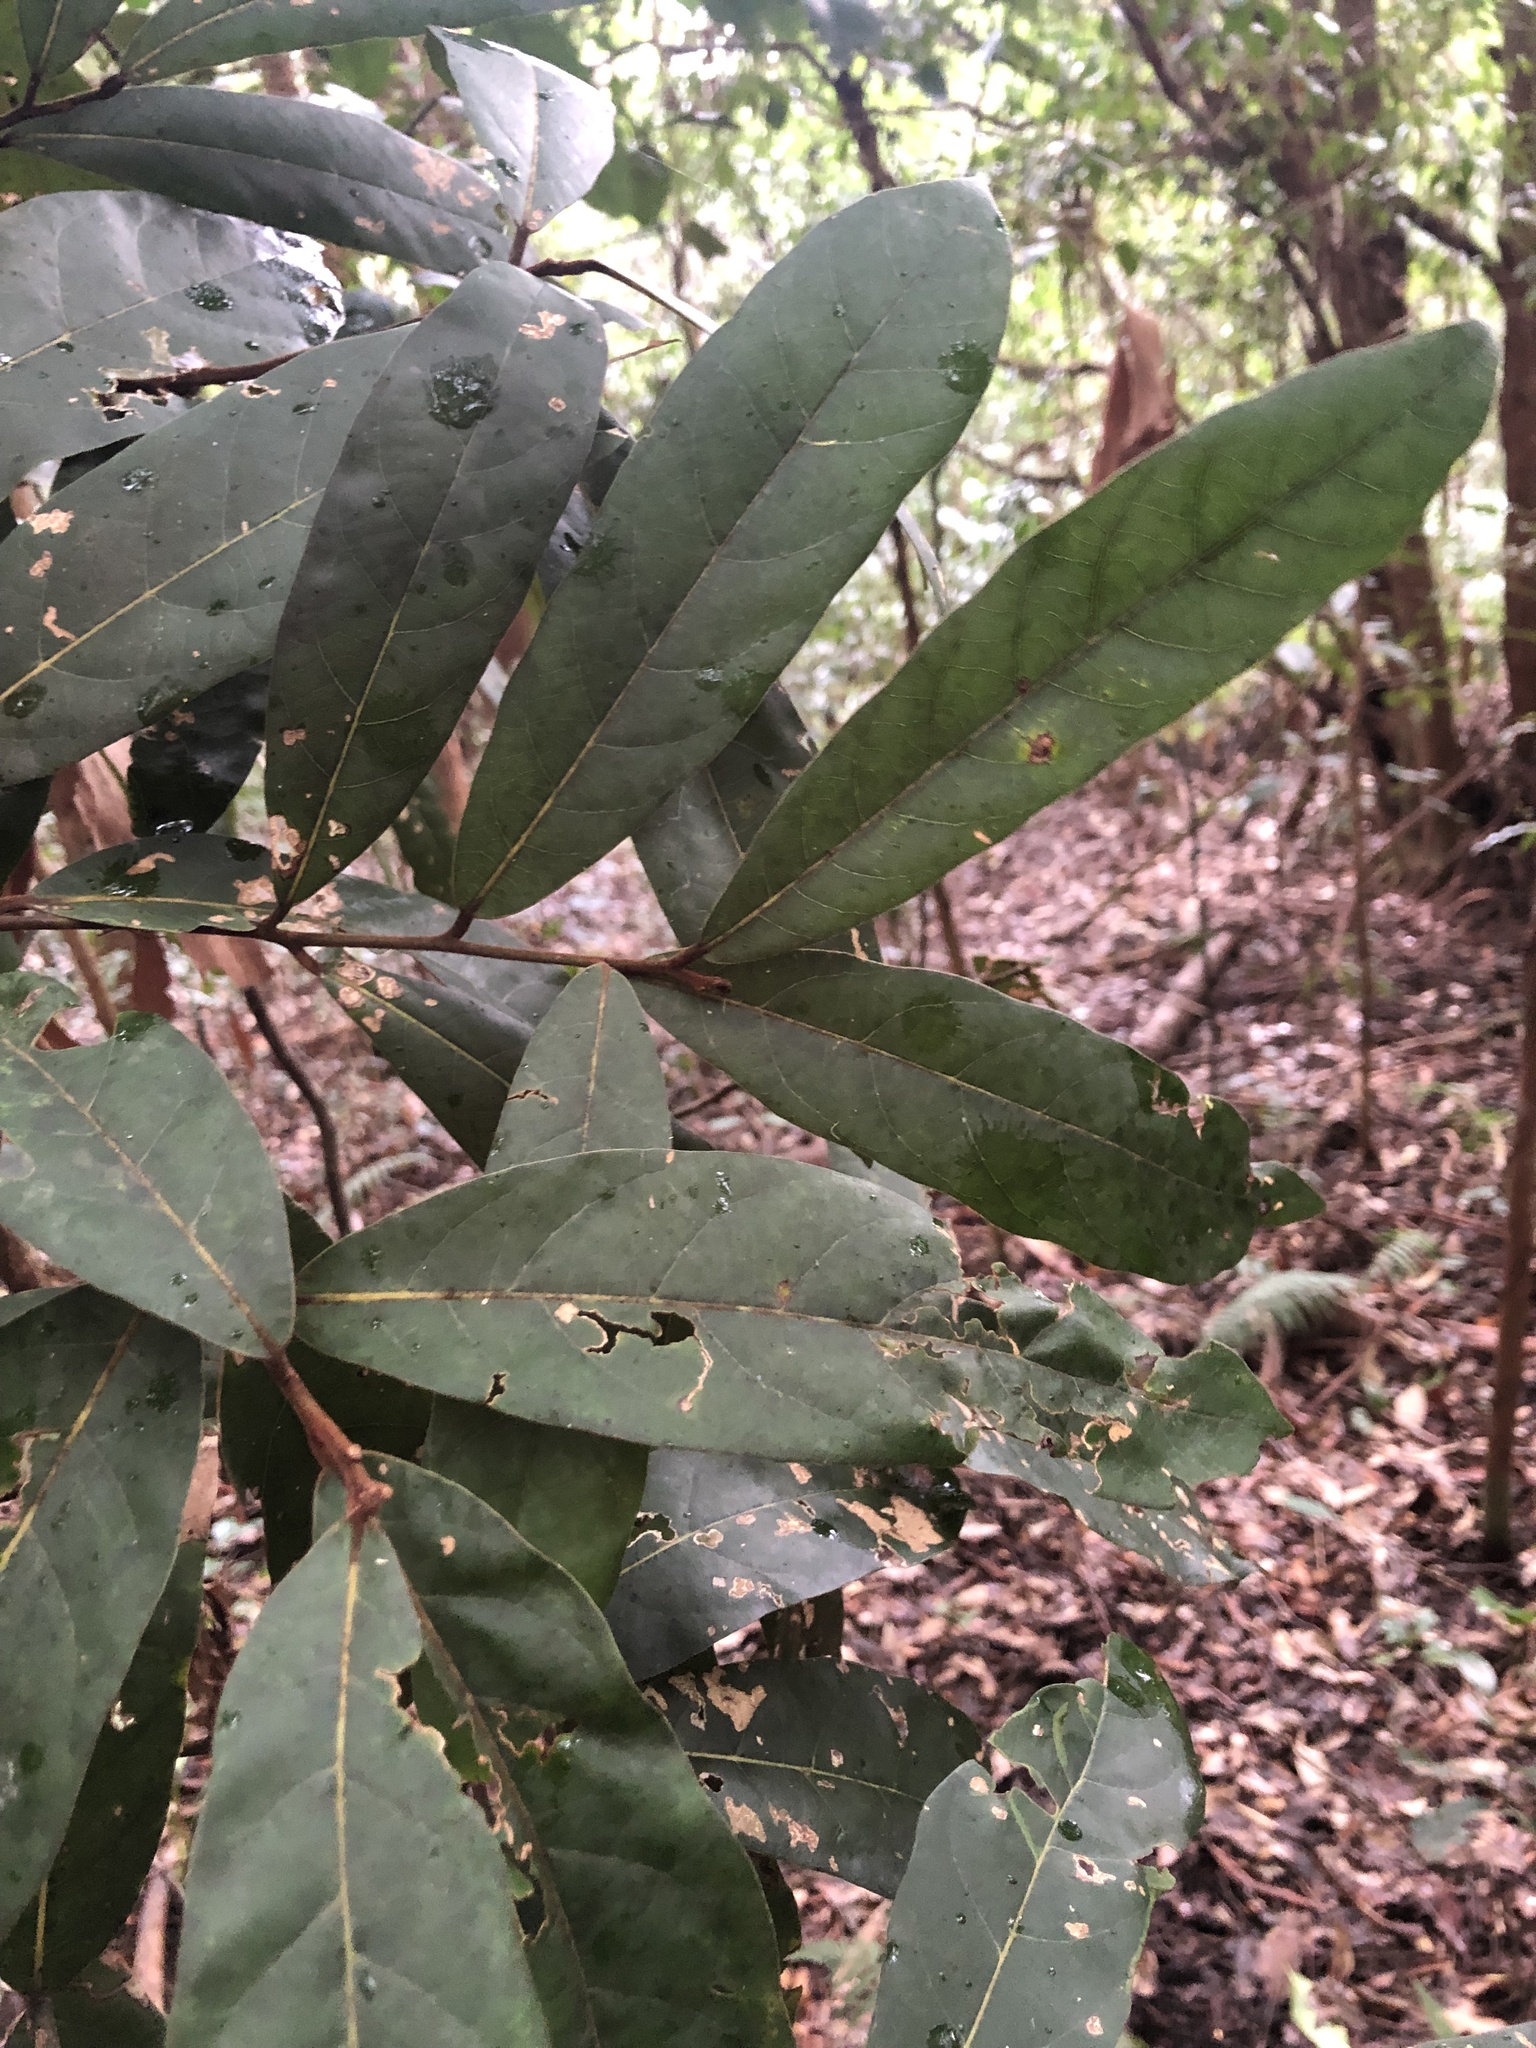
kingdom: Plantae
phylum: Tracheophyta
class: Magnoliopsida
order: Laurales
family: Lauraceae
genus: Cryptocarya
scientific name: Cryptocarya obovata
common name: Pepperberry-tree
